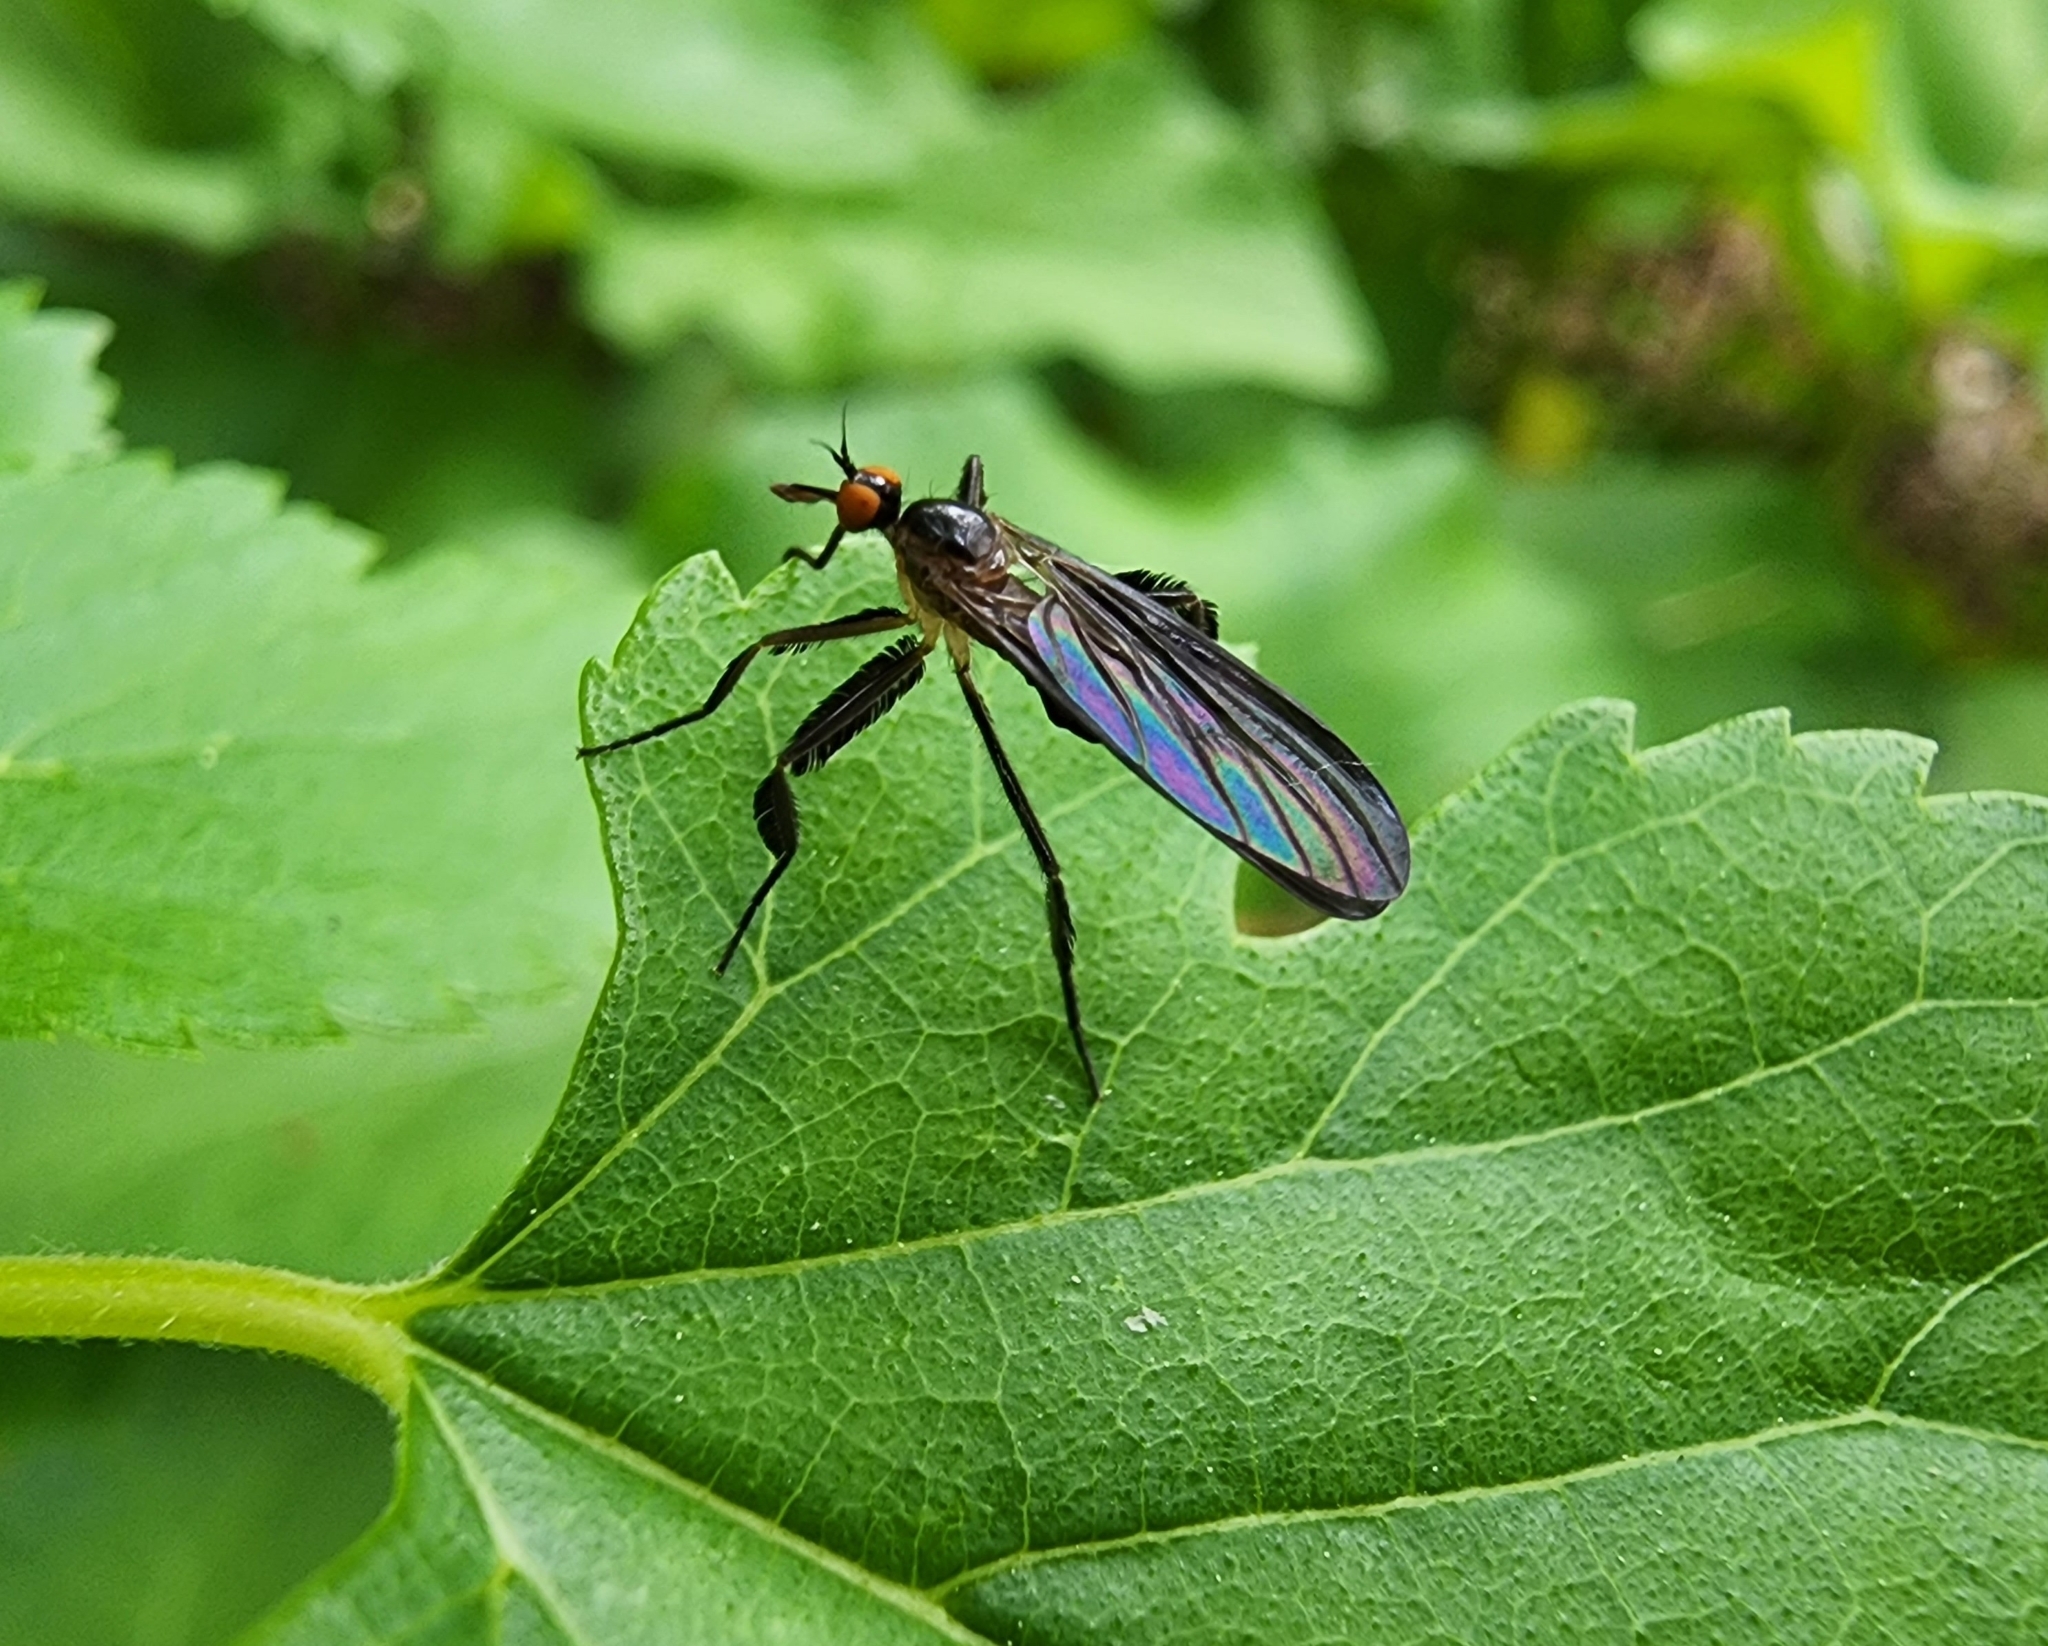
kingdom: Animalia
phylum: Arthropoda
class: Insecta
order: Diptera
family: Empididae
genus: Rhamphomyia
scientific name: Rhamphomyia longicauda
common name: Long-tailed dance fly
